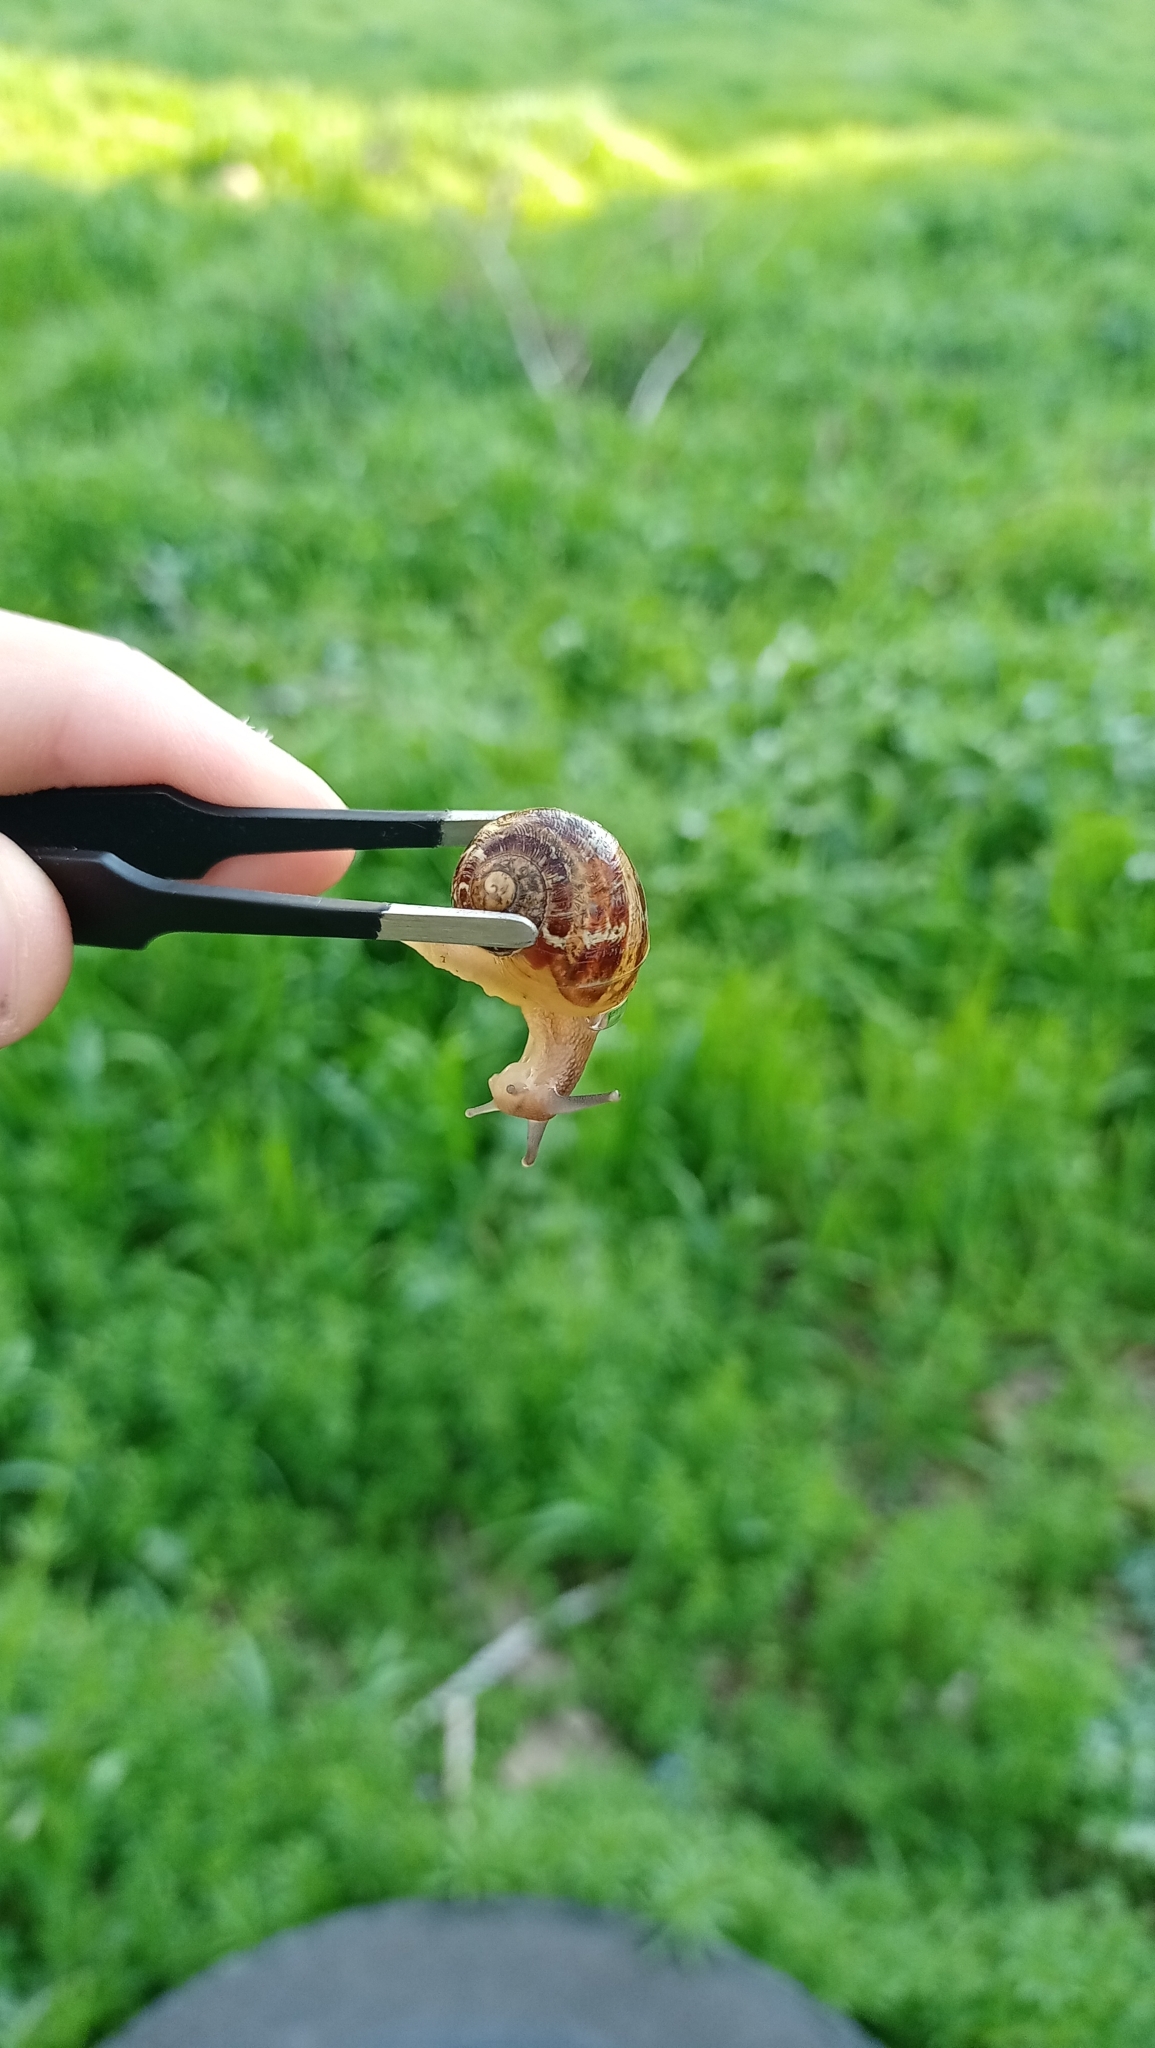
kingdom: Animalia
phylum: Mollusca
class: Gastropoda
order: Stylommatophora
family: Helicidae
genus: Cornu
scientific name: Cornu aspersum
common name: Brown garden snail
